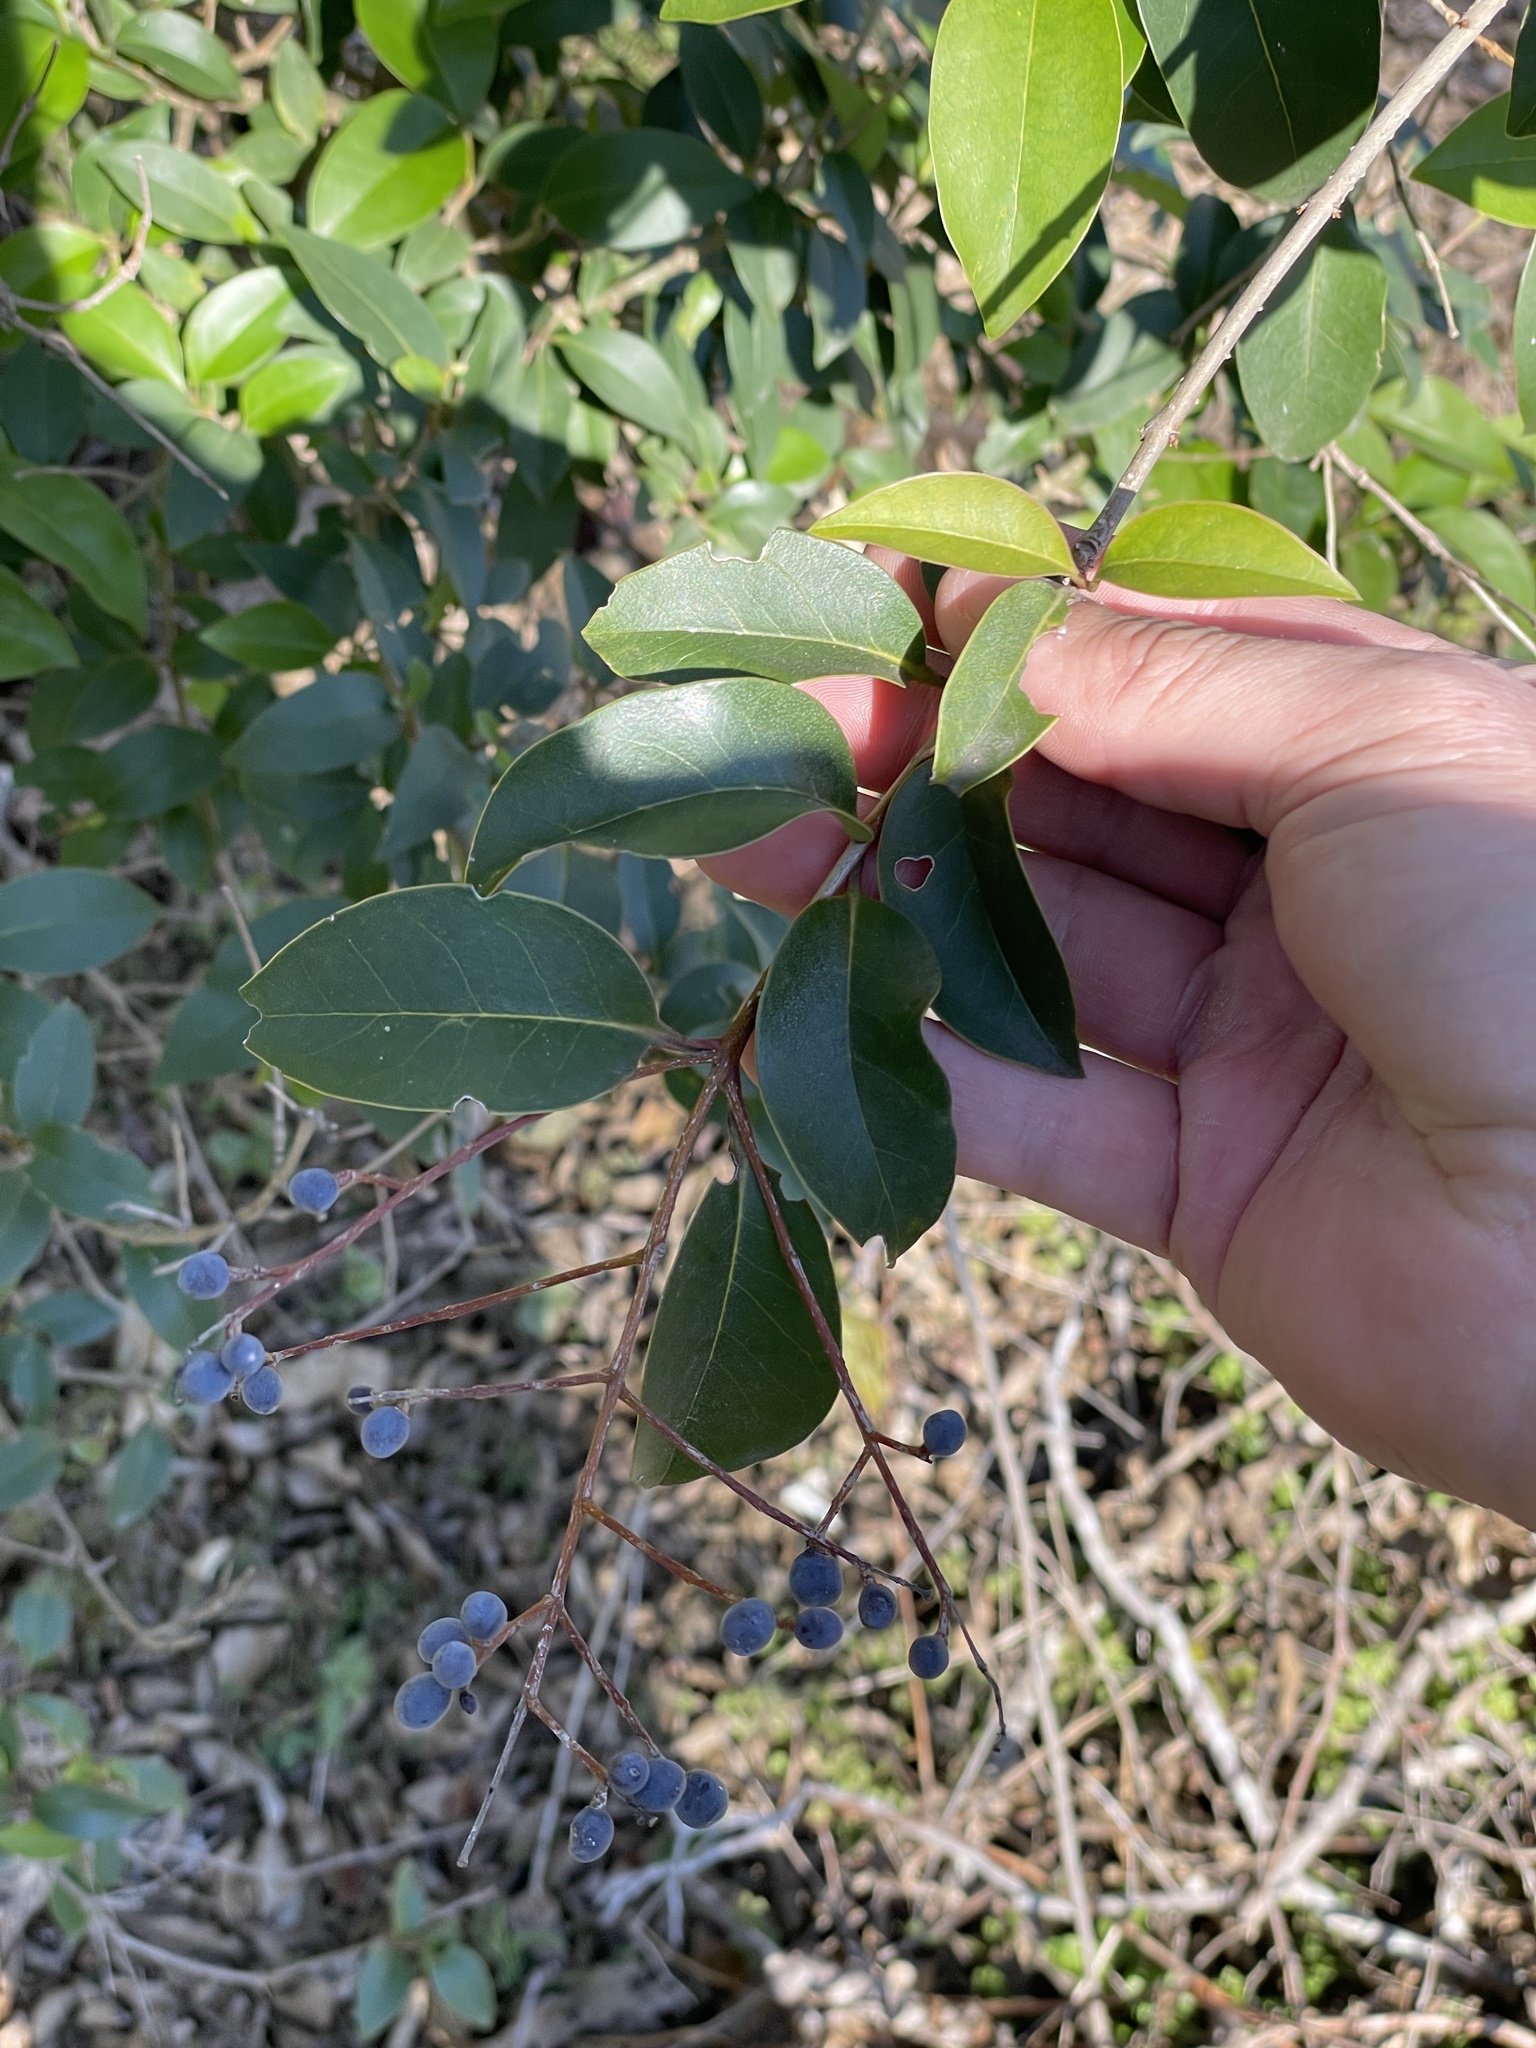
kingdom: Plantae
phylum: Tracheophyta
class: Magnoliopsida
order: Lamiales
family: Oleaceae
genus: Ligustrum
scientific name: Ligustrum lucidum
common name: Glossy privet
